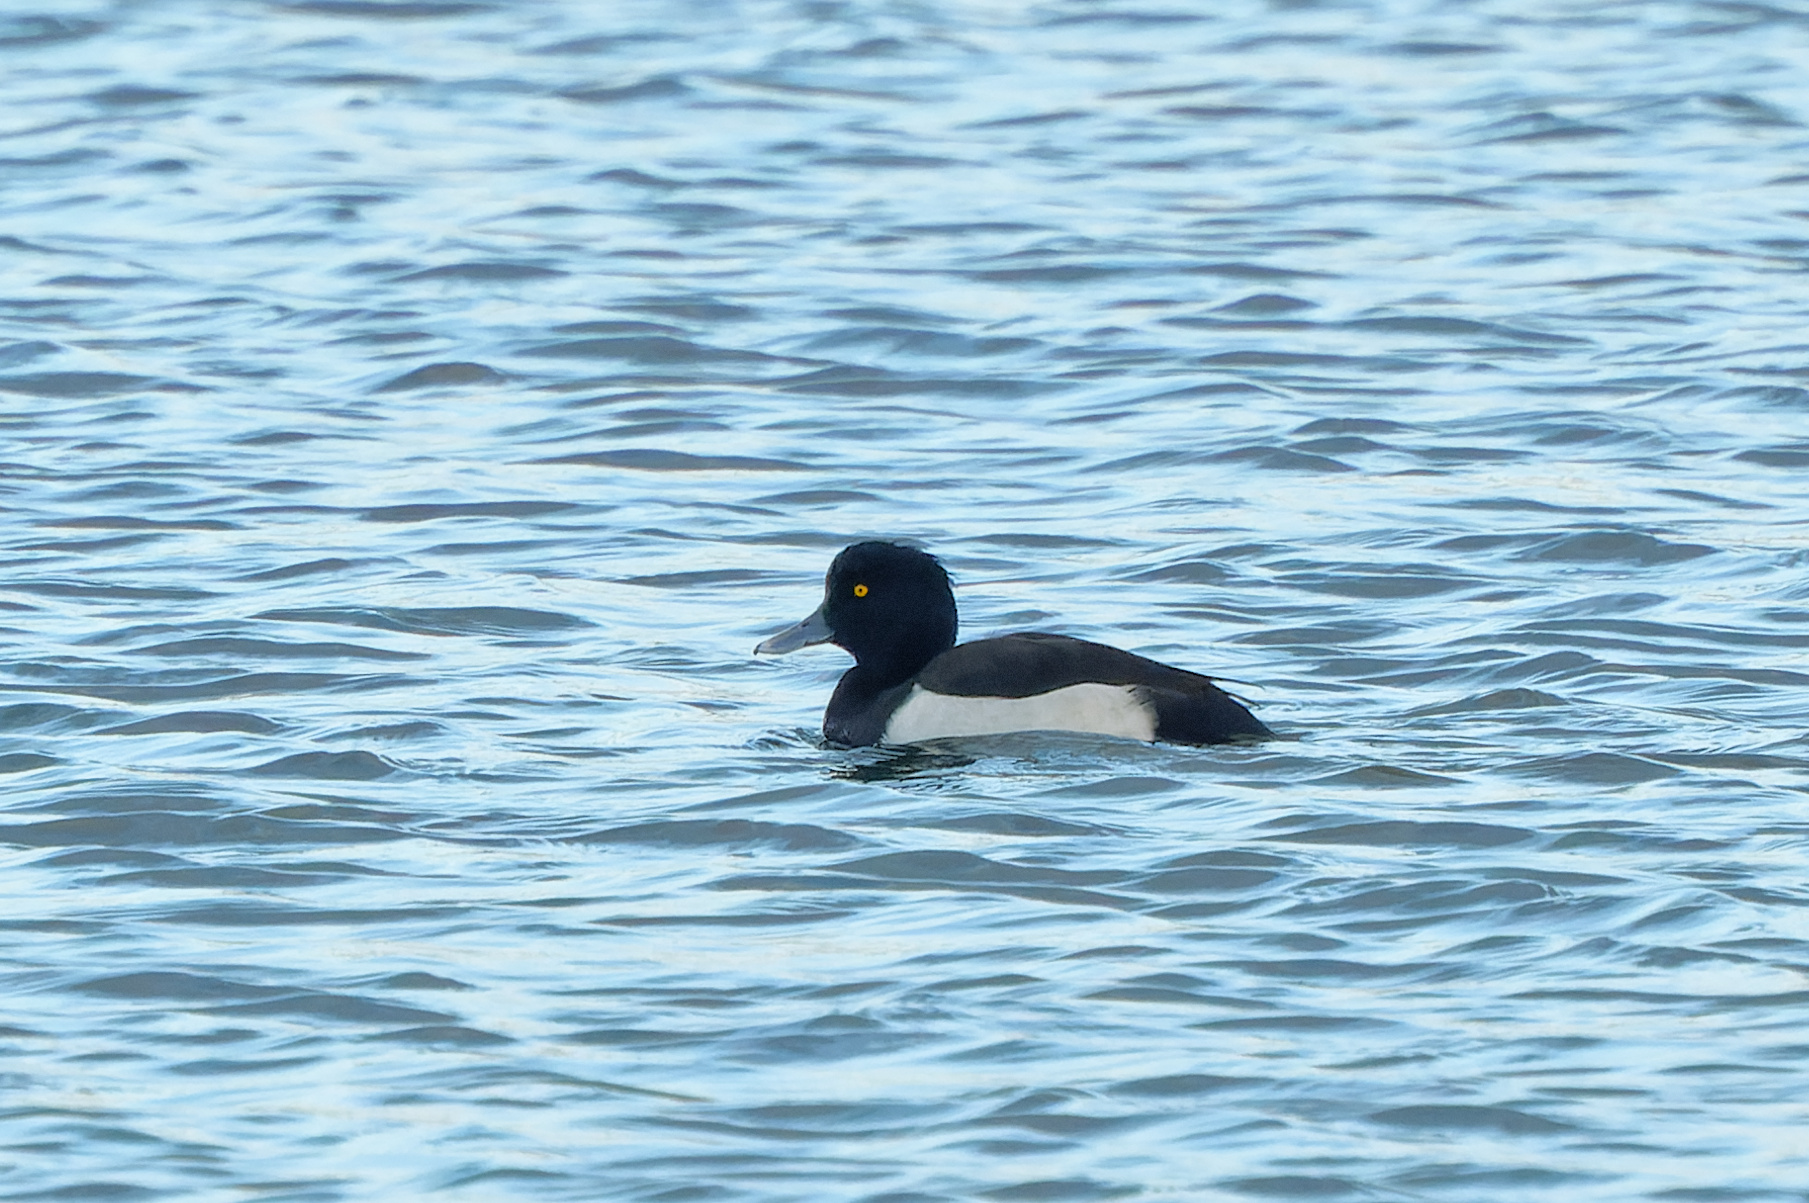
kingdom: Animalia
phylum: Chordata
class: Aves
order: Anseriformes
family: Anatidae
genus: Aythya
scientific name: Aythya fuligula
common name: Tufted duck
